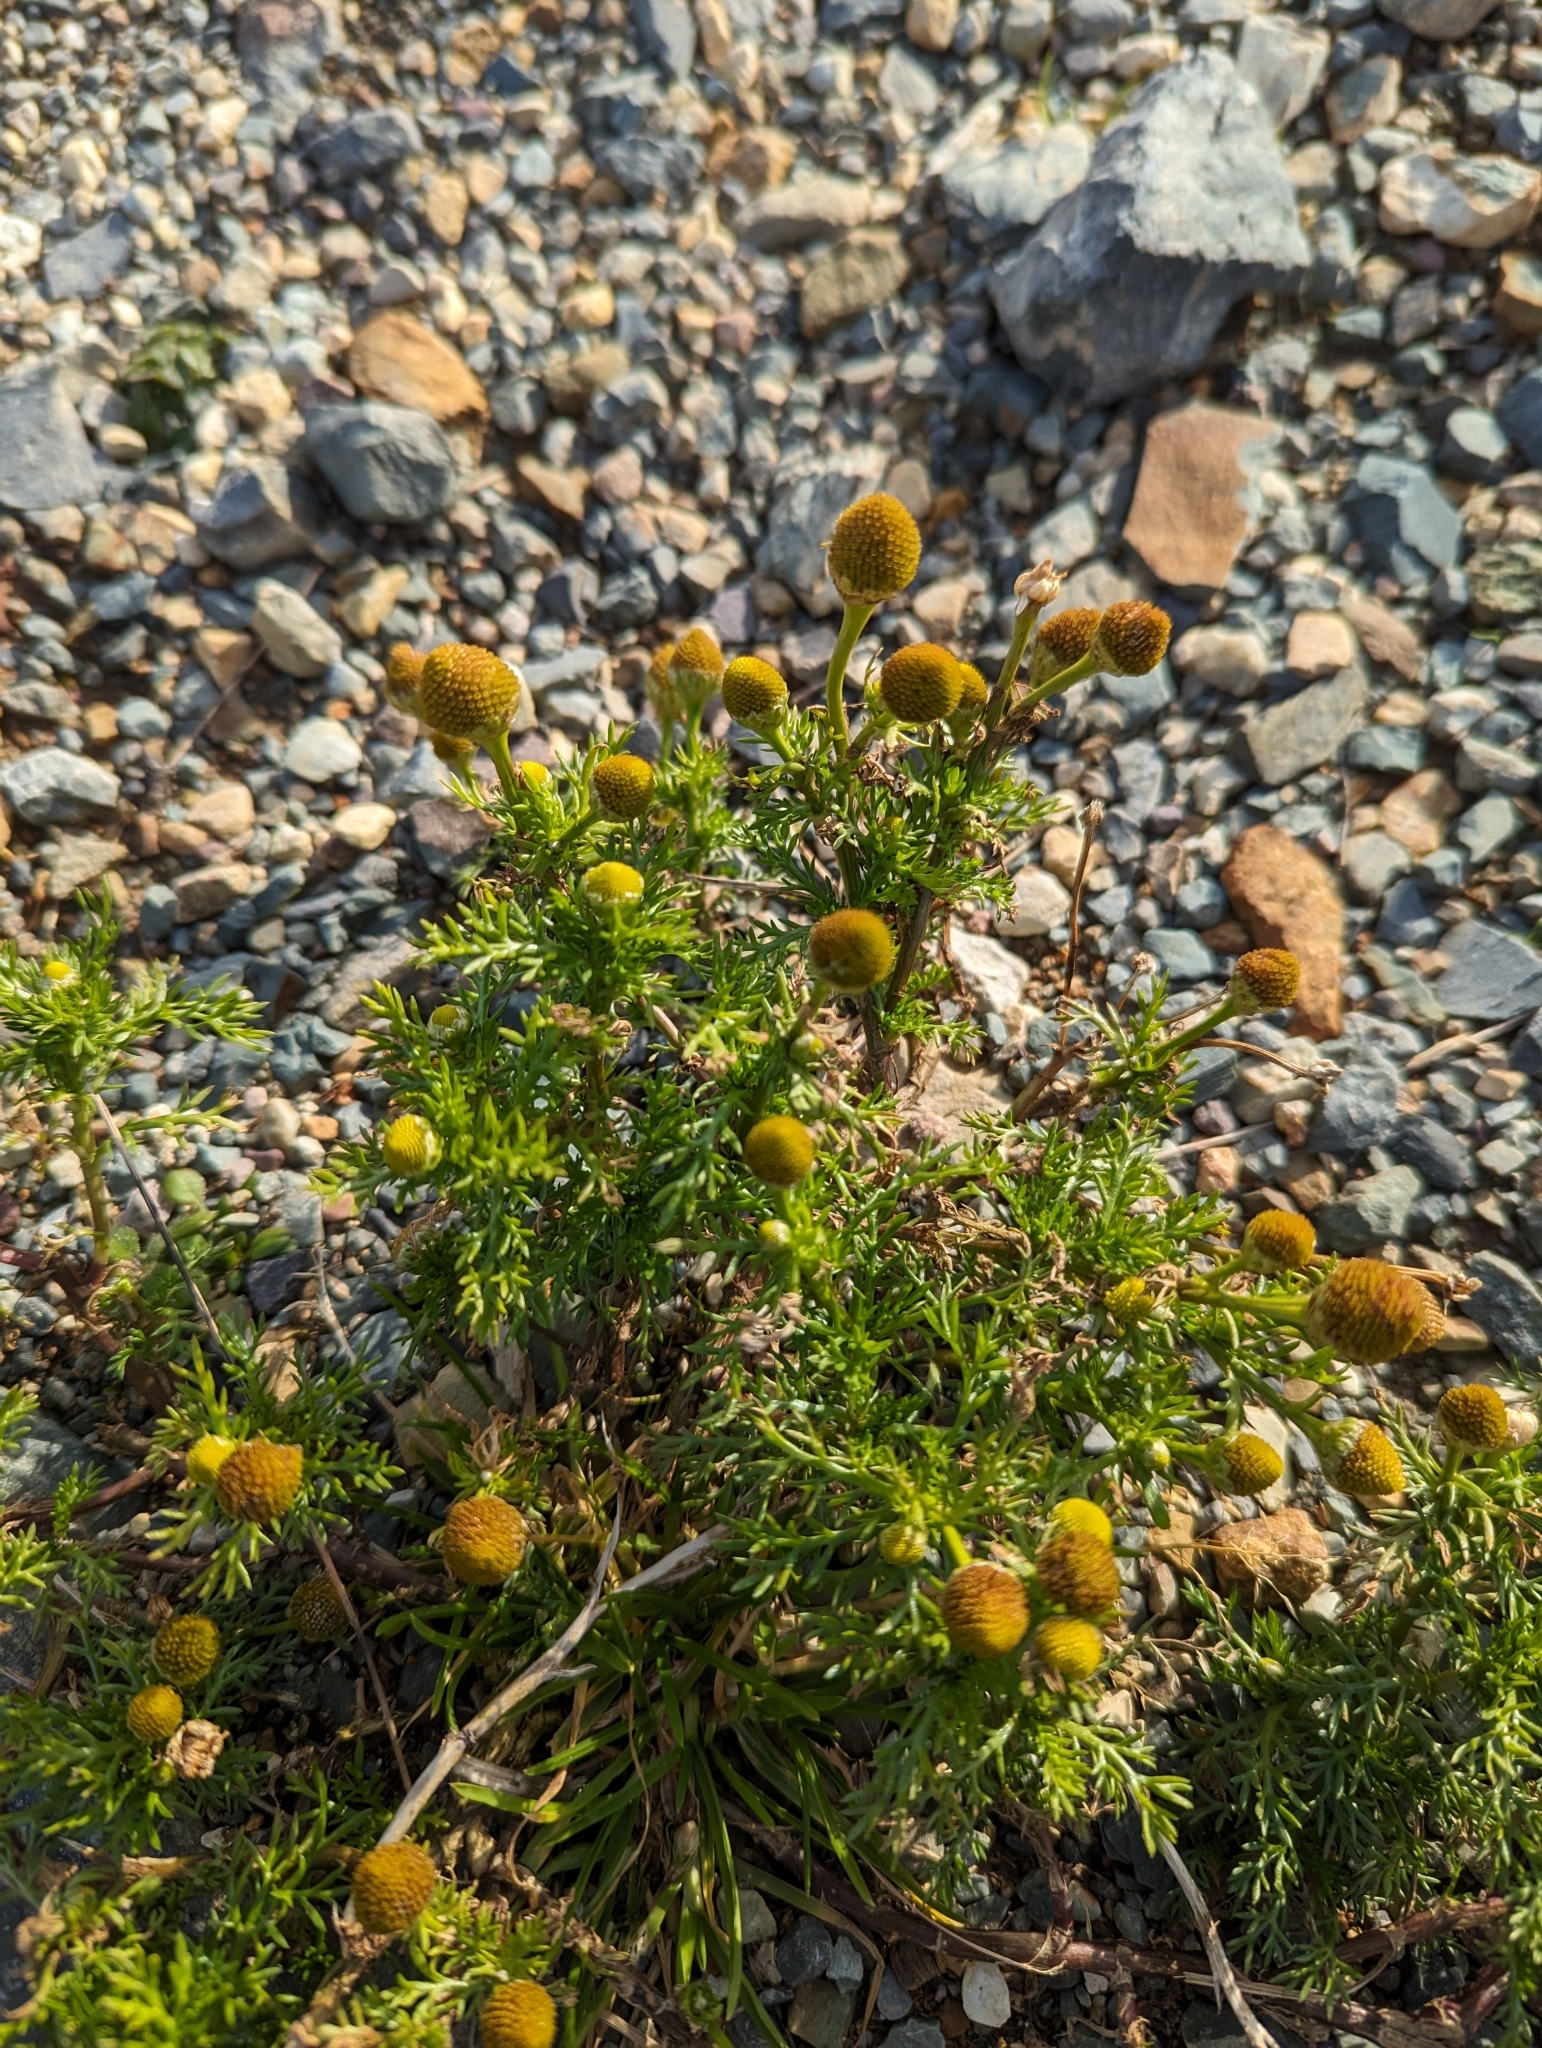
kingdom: Plantae
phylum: Tracheophyta
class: Magnoliopsida
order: Asterales
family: Asteraceae
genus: Matricaria
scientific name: Matricaria discoidea
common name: Disc mayweed
